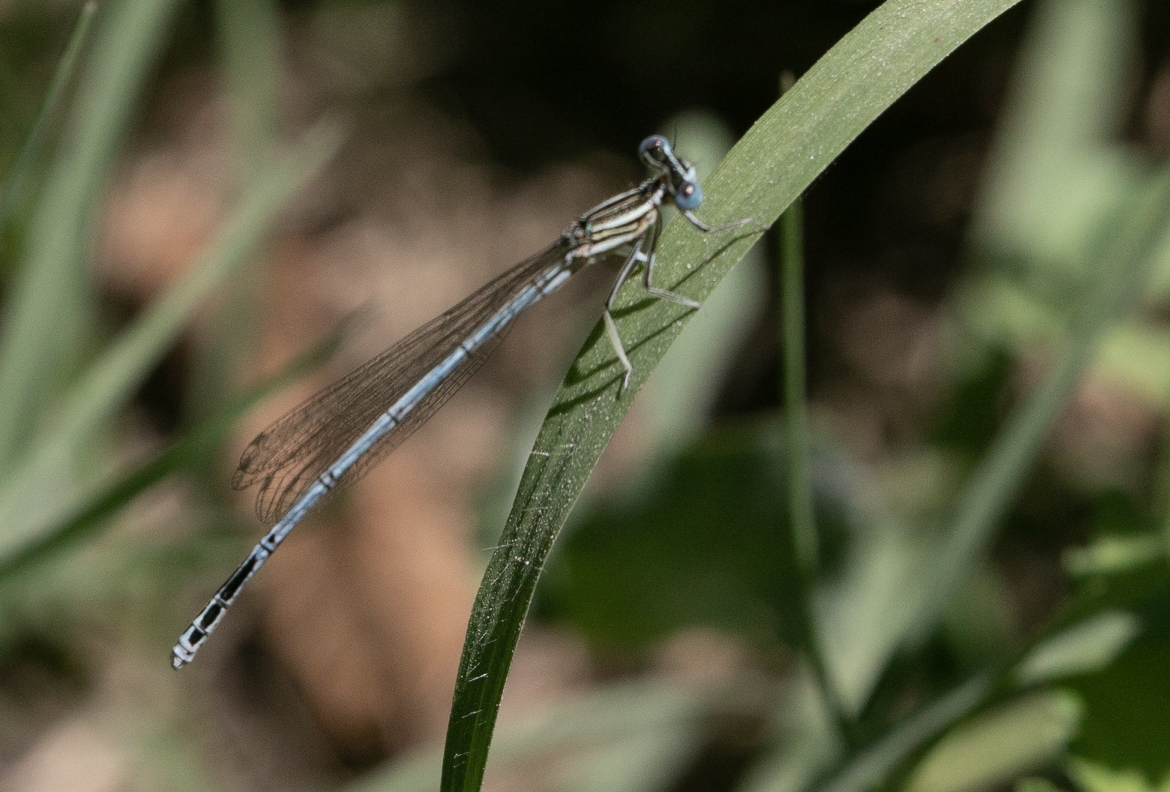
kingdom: Animalia
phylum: Arthropoda
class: Insecta
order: Odonata
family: Platycnemididae
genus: Platycnemis
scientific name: Platycnemis pennipes
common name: White-legged damselfly
